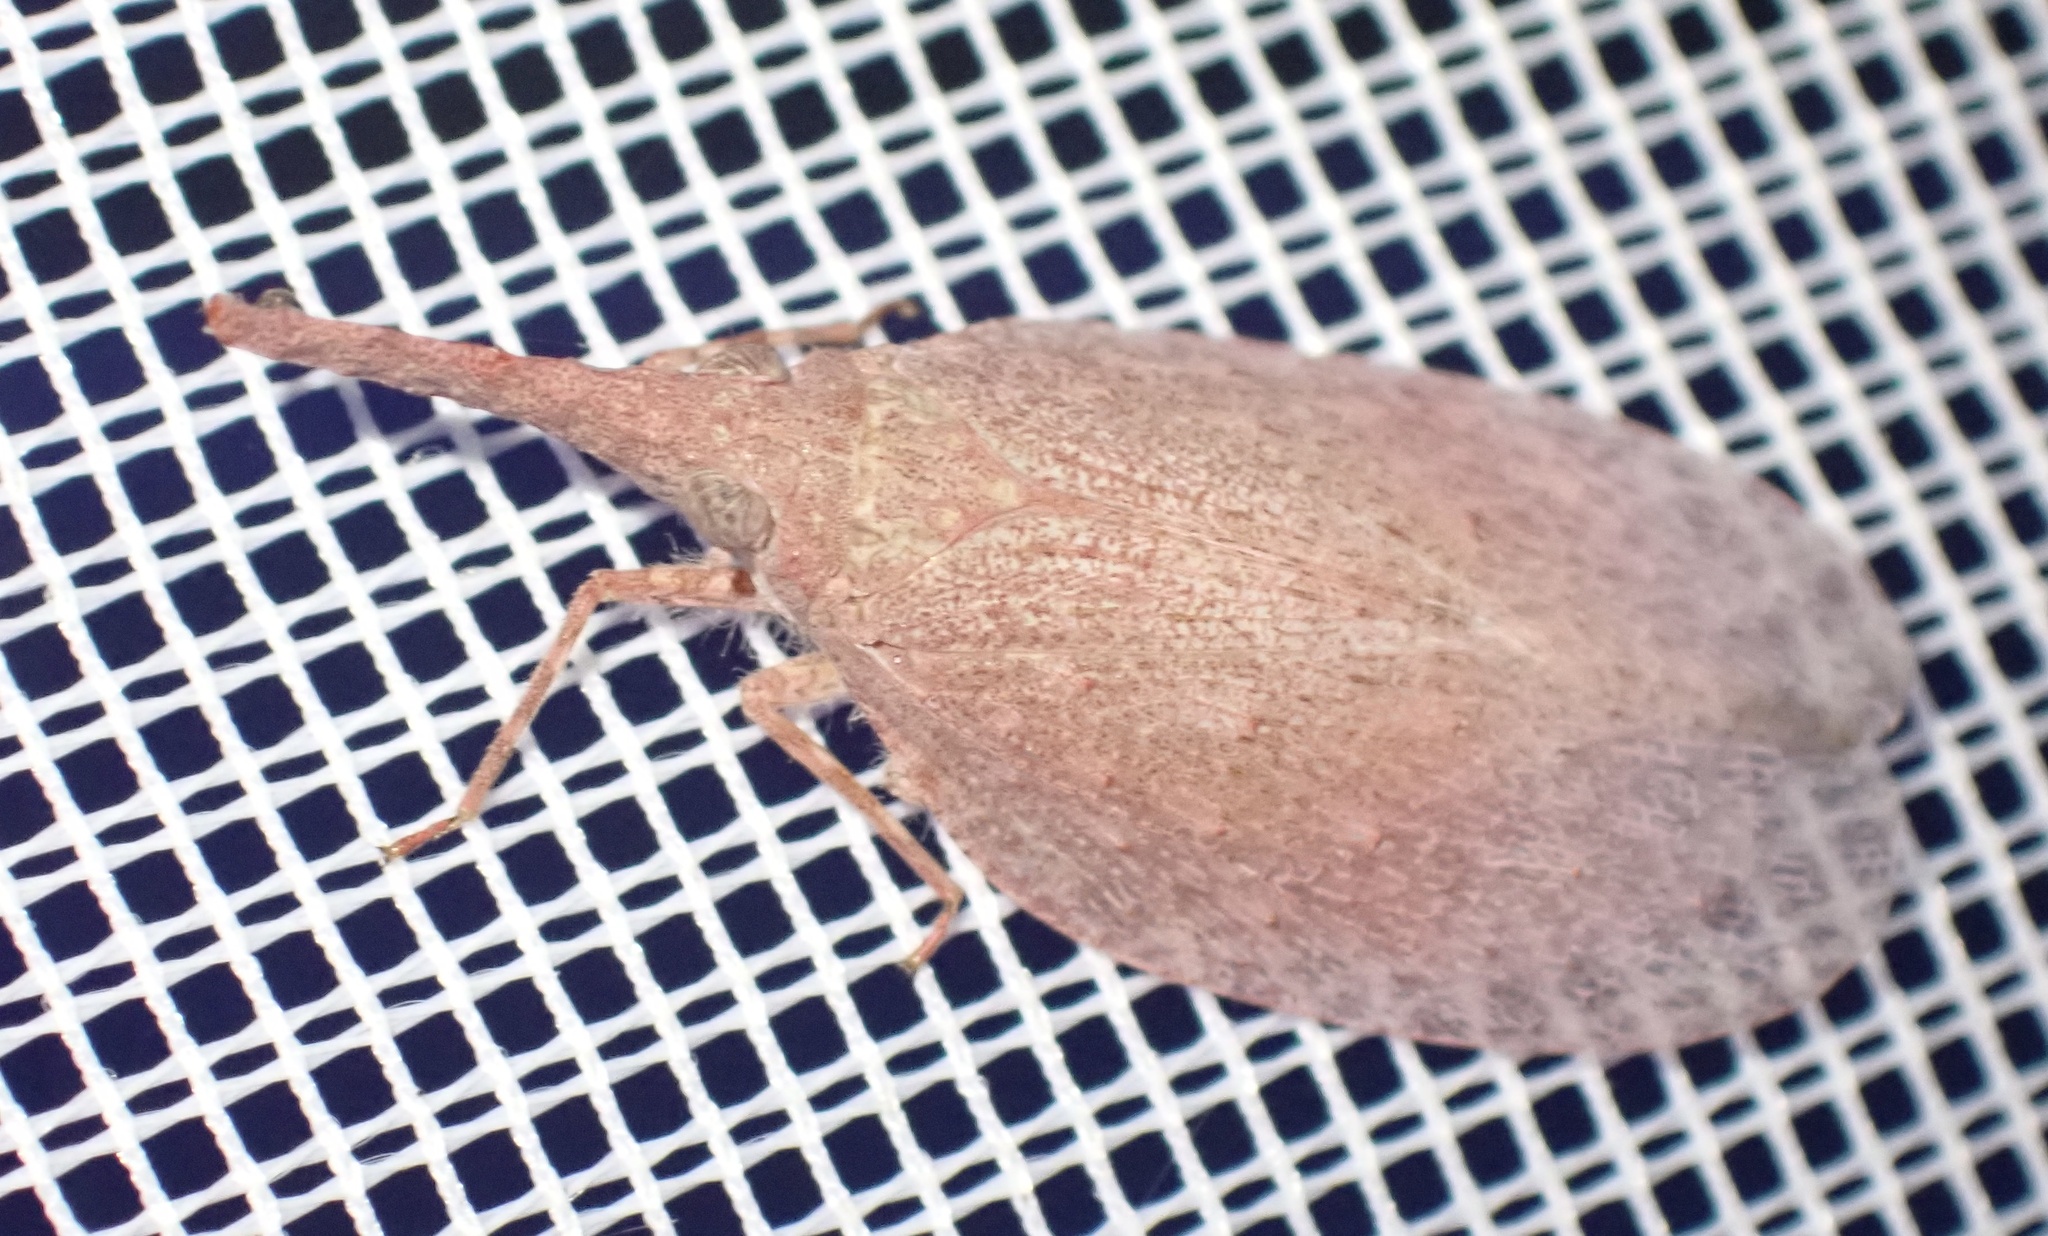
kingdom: Animalia
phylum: Arthropoda
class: Insecta
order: Hemiptera
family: Fulgoridae
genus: Rentinus
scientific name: Rentinus dilatatus
